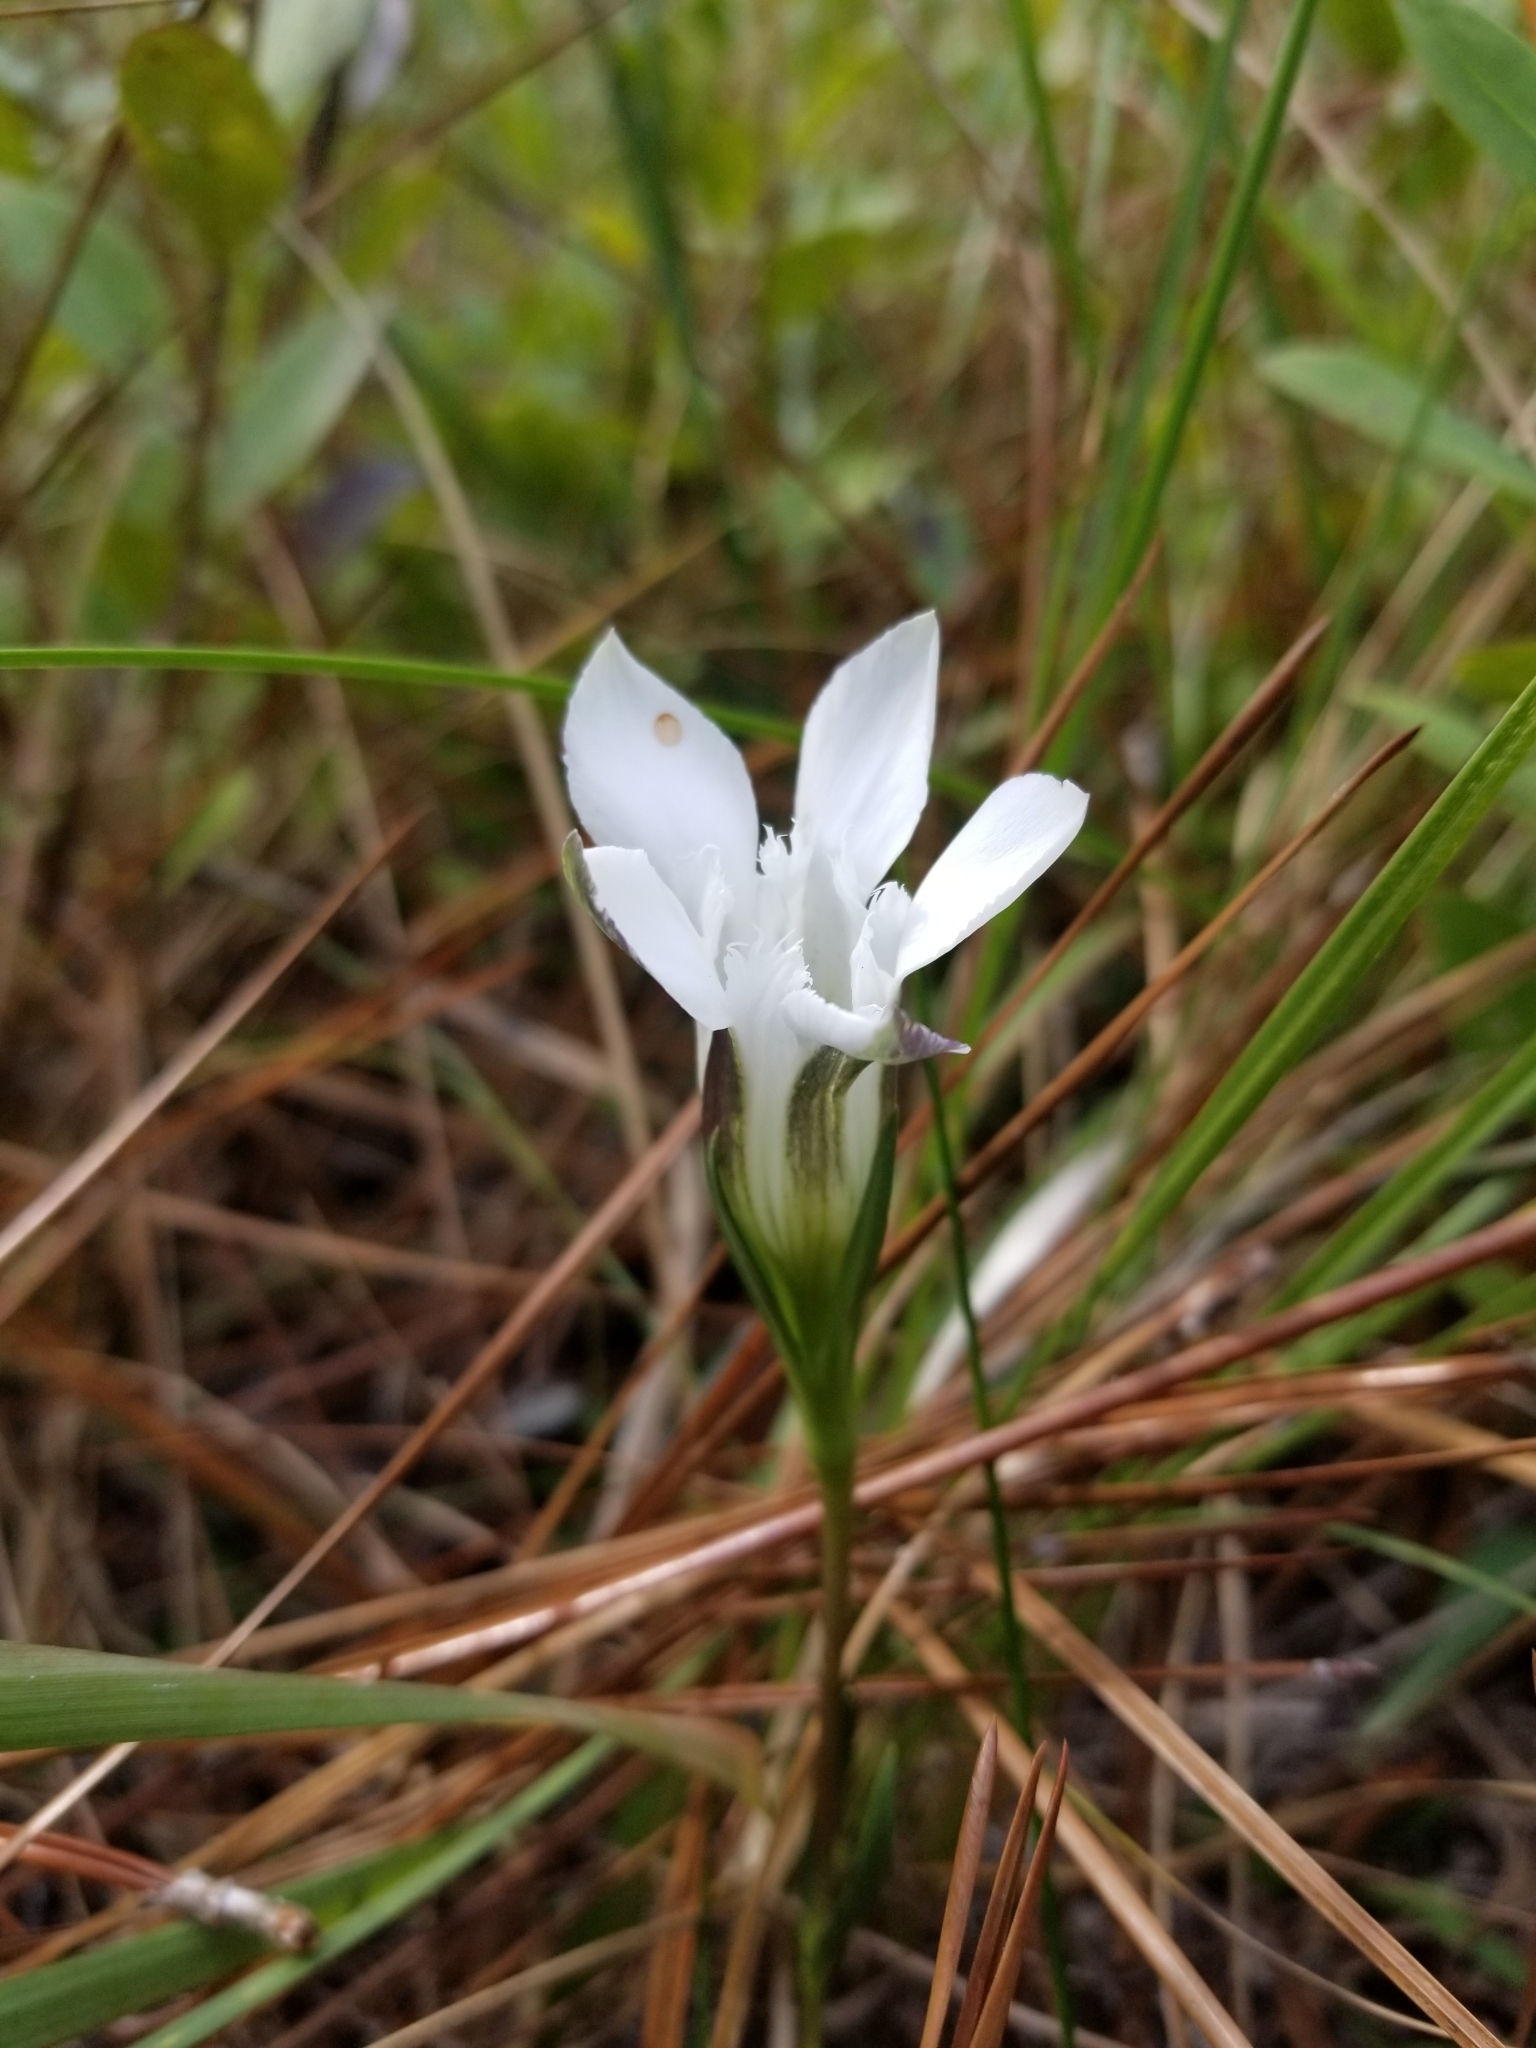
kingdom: Plantae
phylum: Tracheophyta
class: Magnoliopsida
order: Gentianales
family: Gentianaceae
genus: Gentiana
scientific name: Gentiana pennelliana
